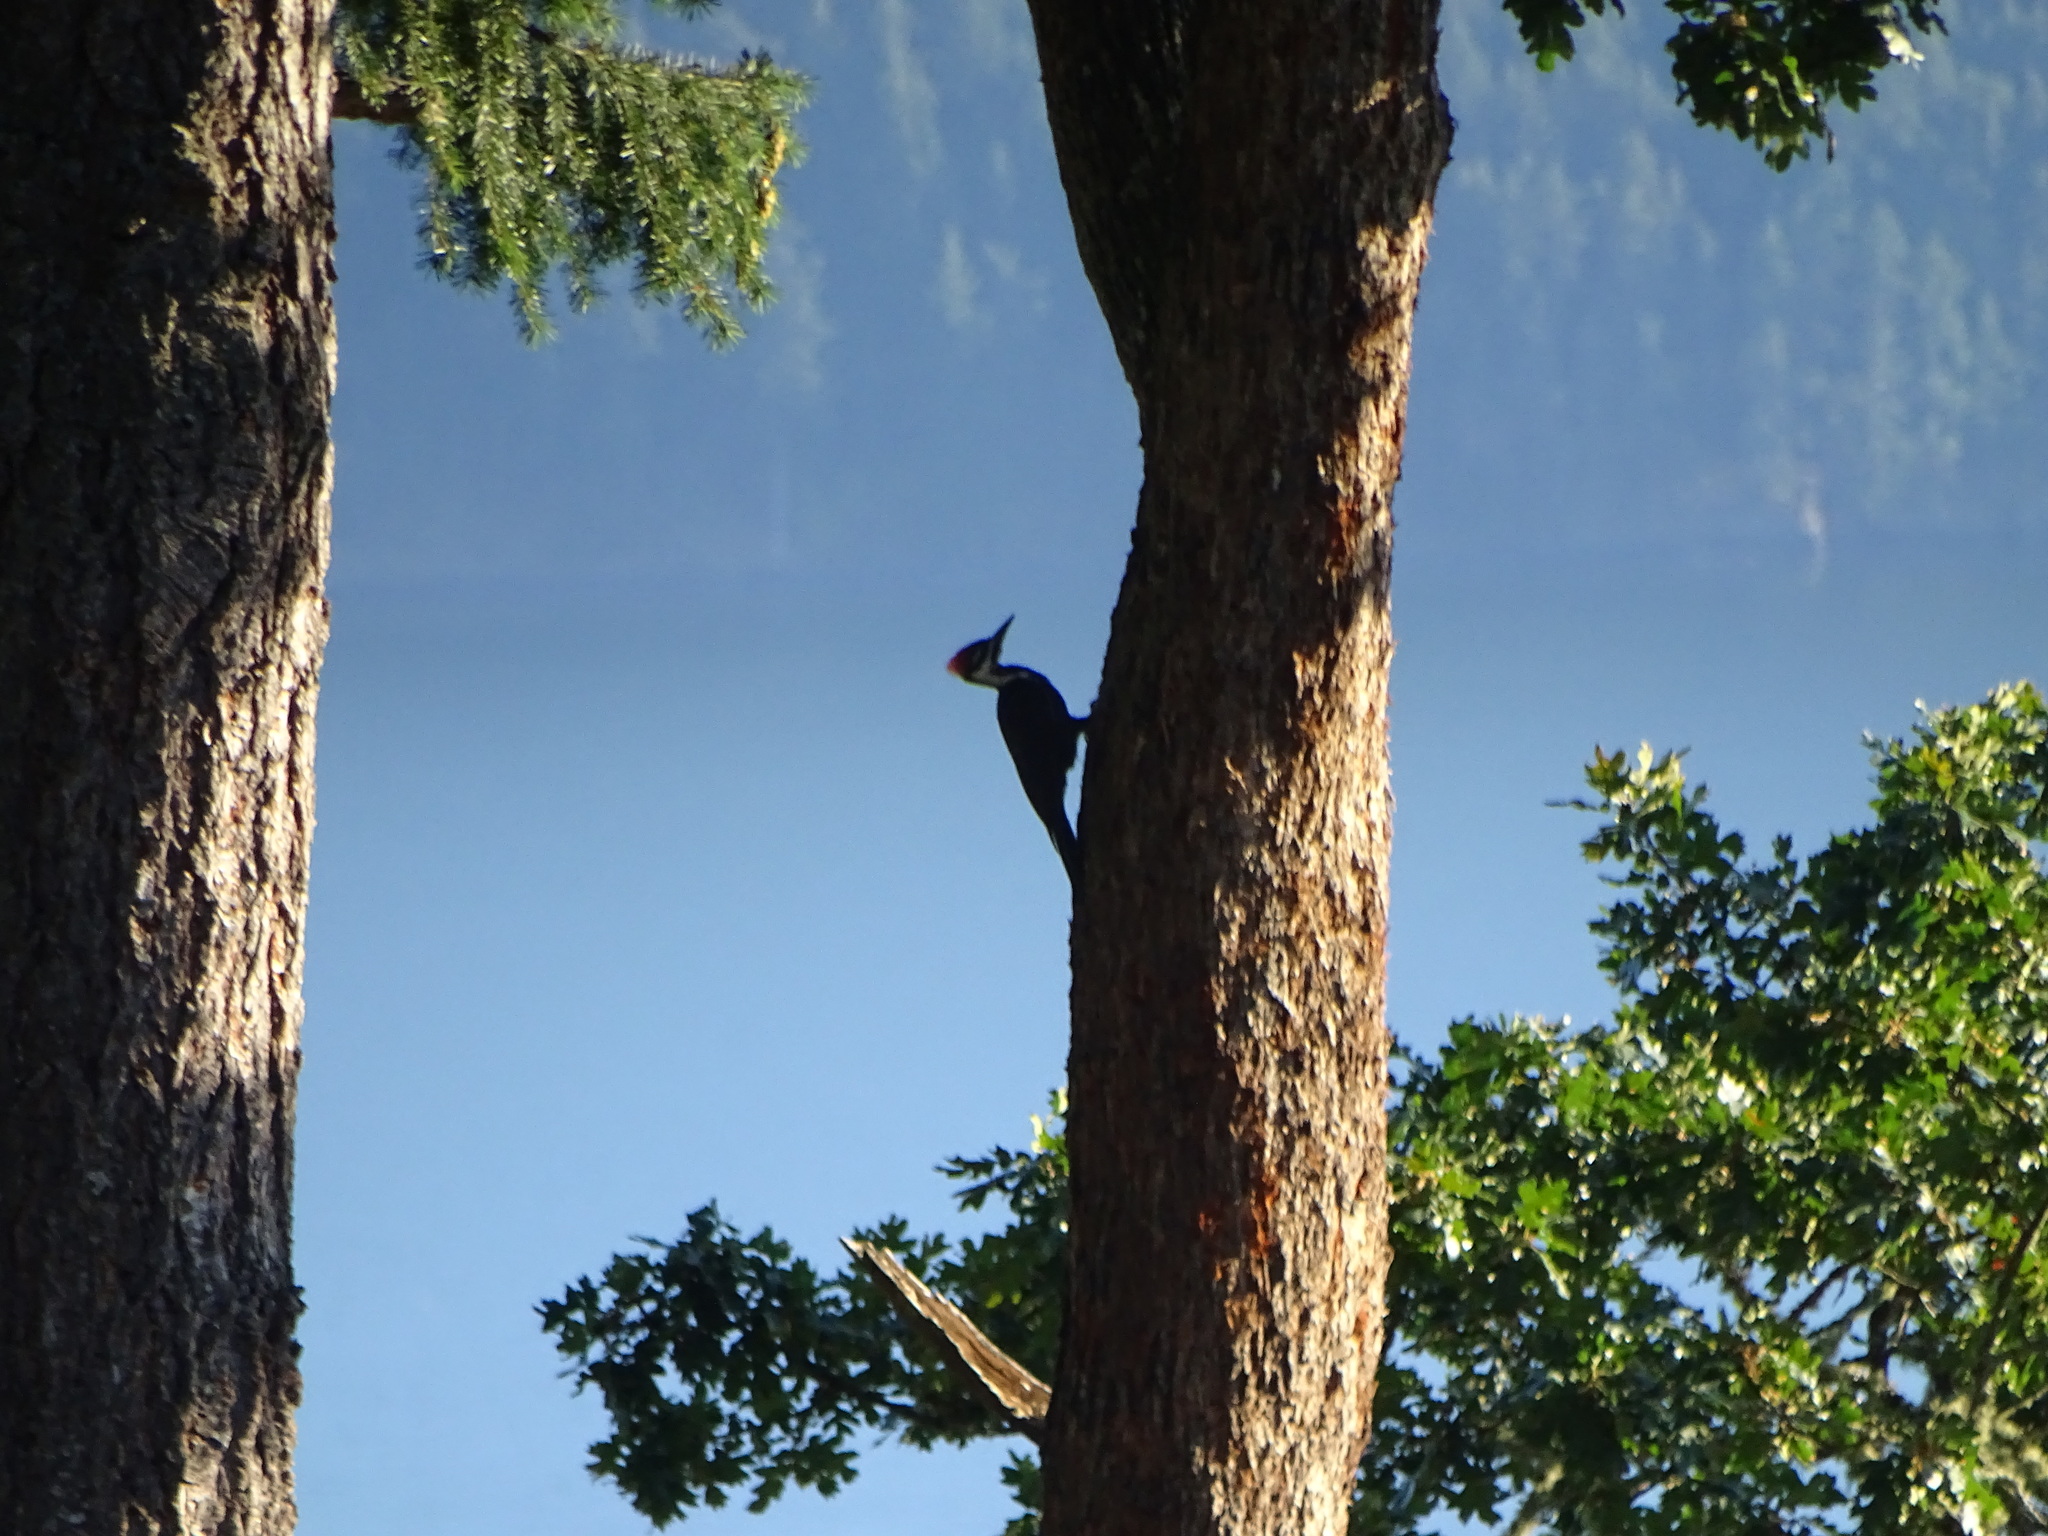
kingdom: Animalia
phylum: Chordata
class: Aves
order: Piciformes
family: Picidae
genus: Dryocopus
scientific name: Dryocopus pileatus
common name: Pileated woodpecker
